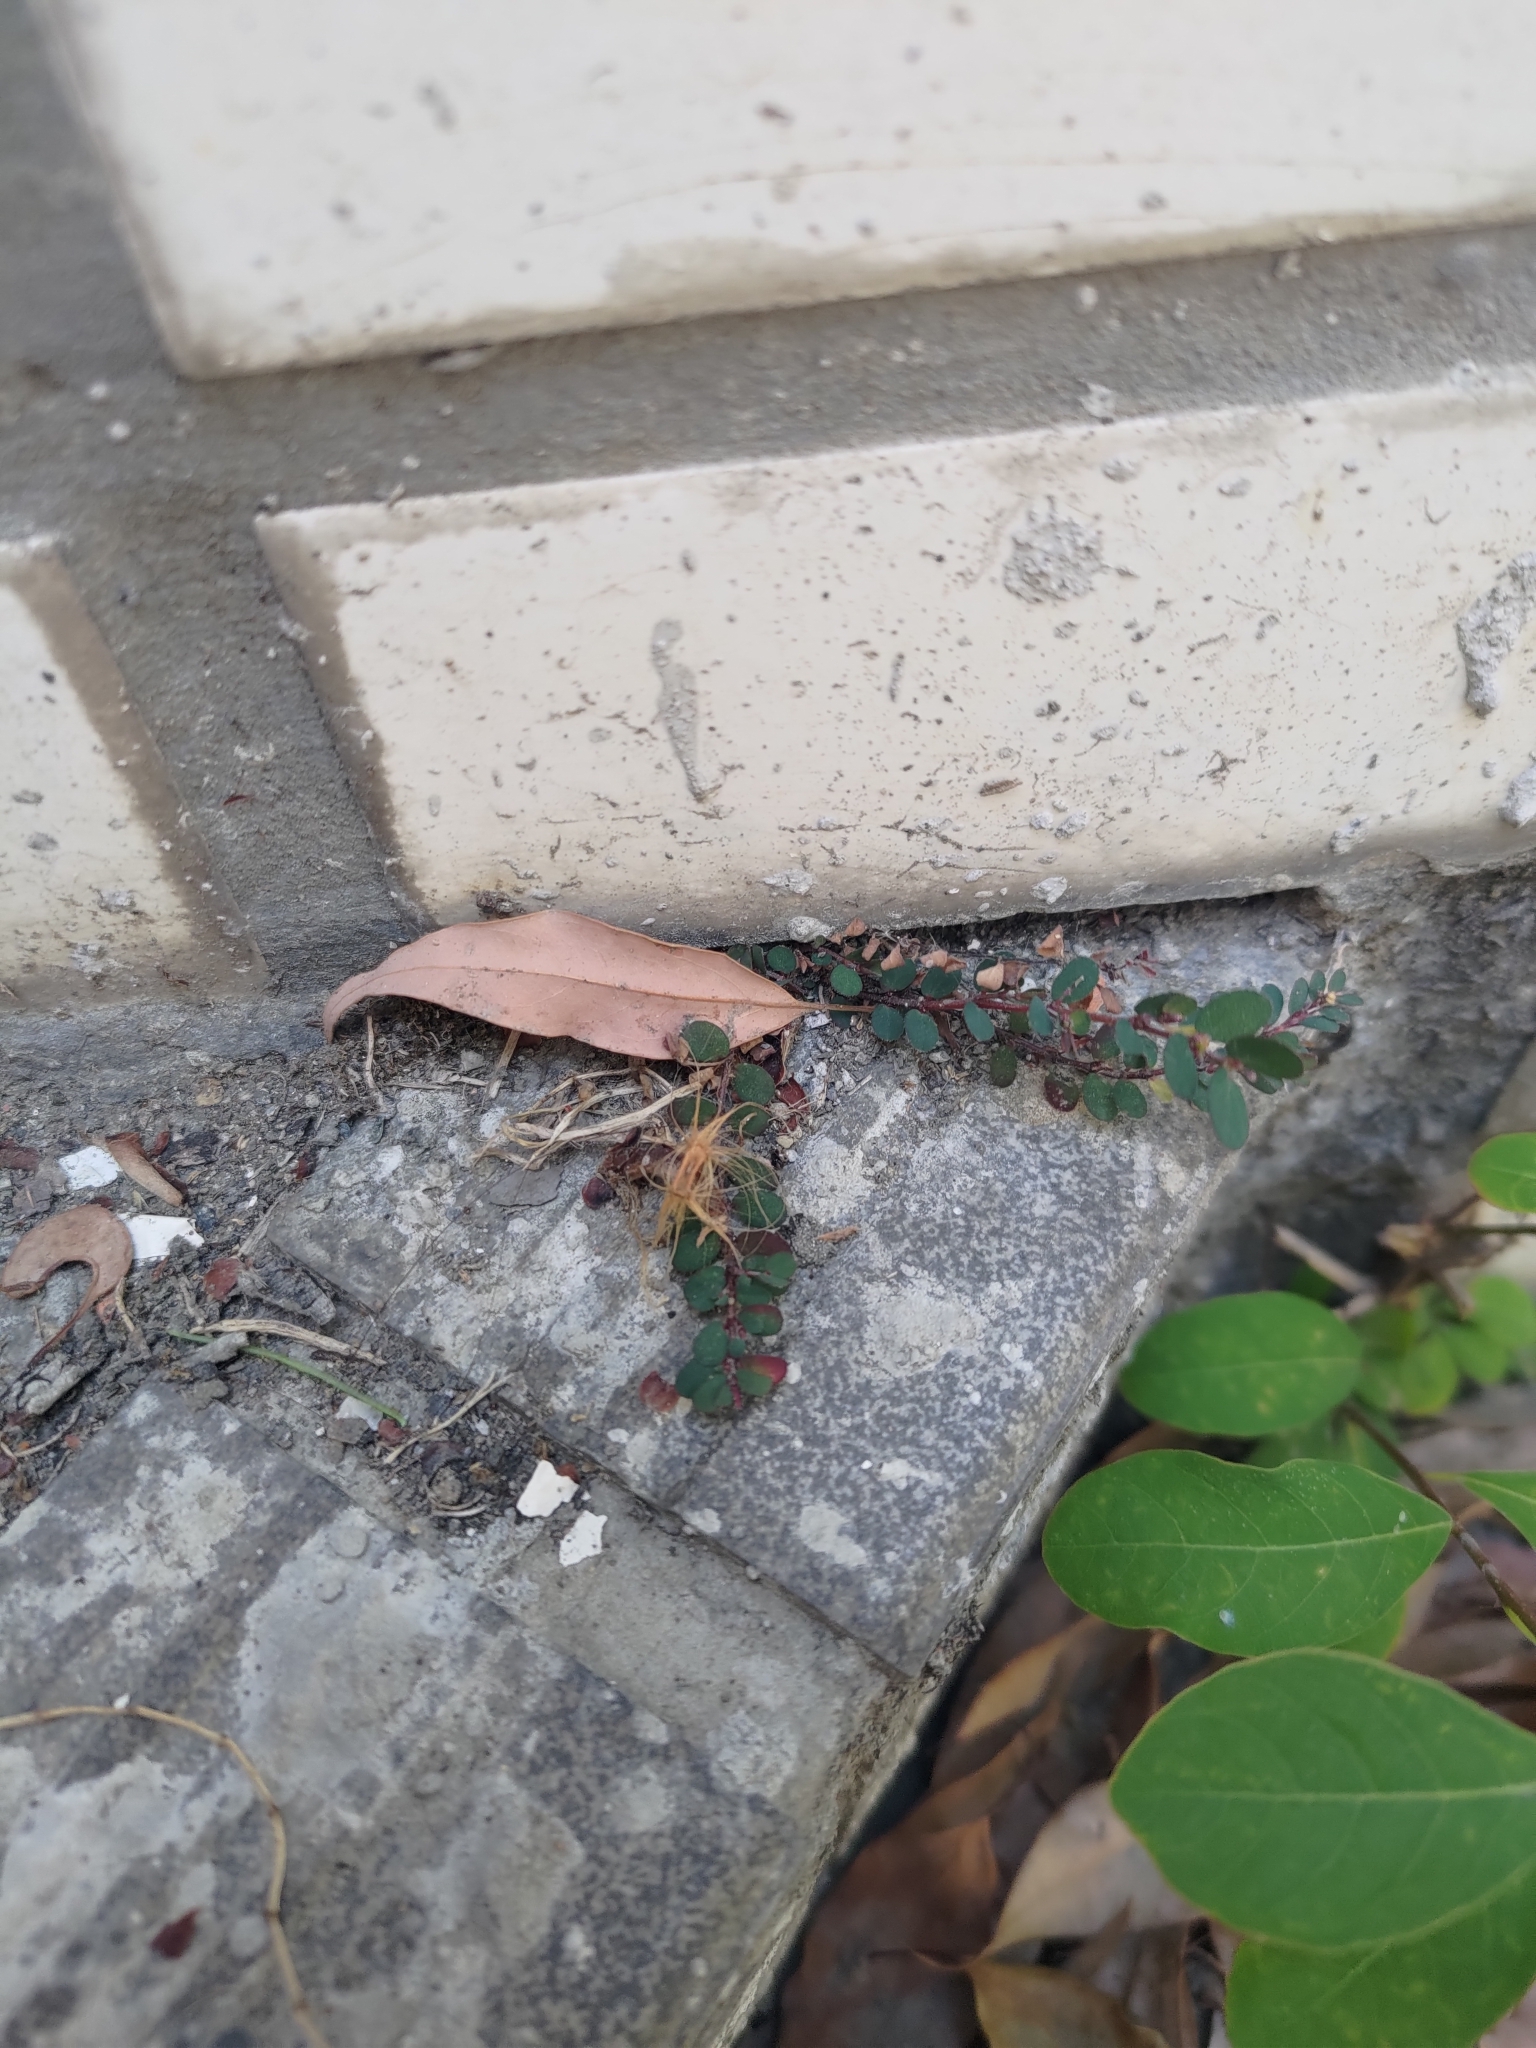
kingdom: Plantae
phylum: Tracheophyta
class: Magnoliopsida
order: Malpighiales
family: Euphorbiaceae
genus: Euphorbia
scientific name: Euphorbia prostrata
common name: Prostrate sandmat
